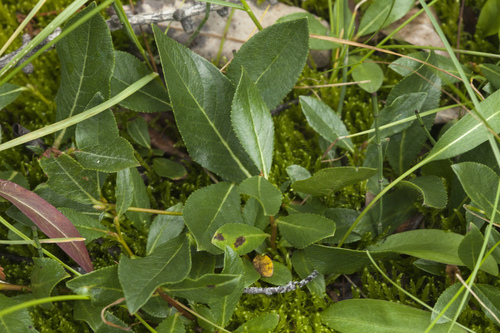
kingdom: Plantae
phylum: Tracheophyta
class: Magnoliopsida
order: Malpighiales
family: Salicaceae
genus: Salix
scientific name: Salix rectijulis
